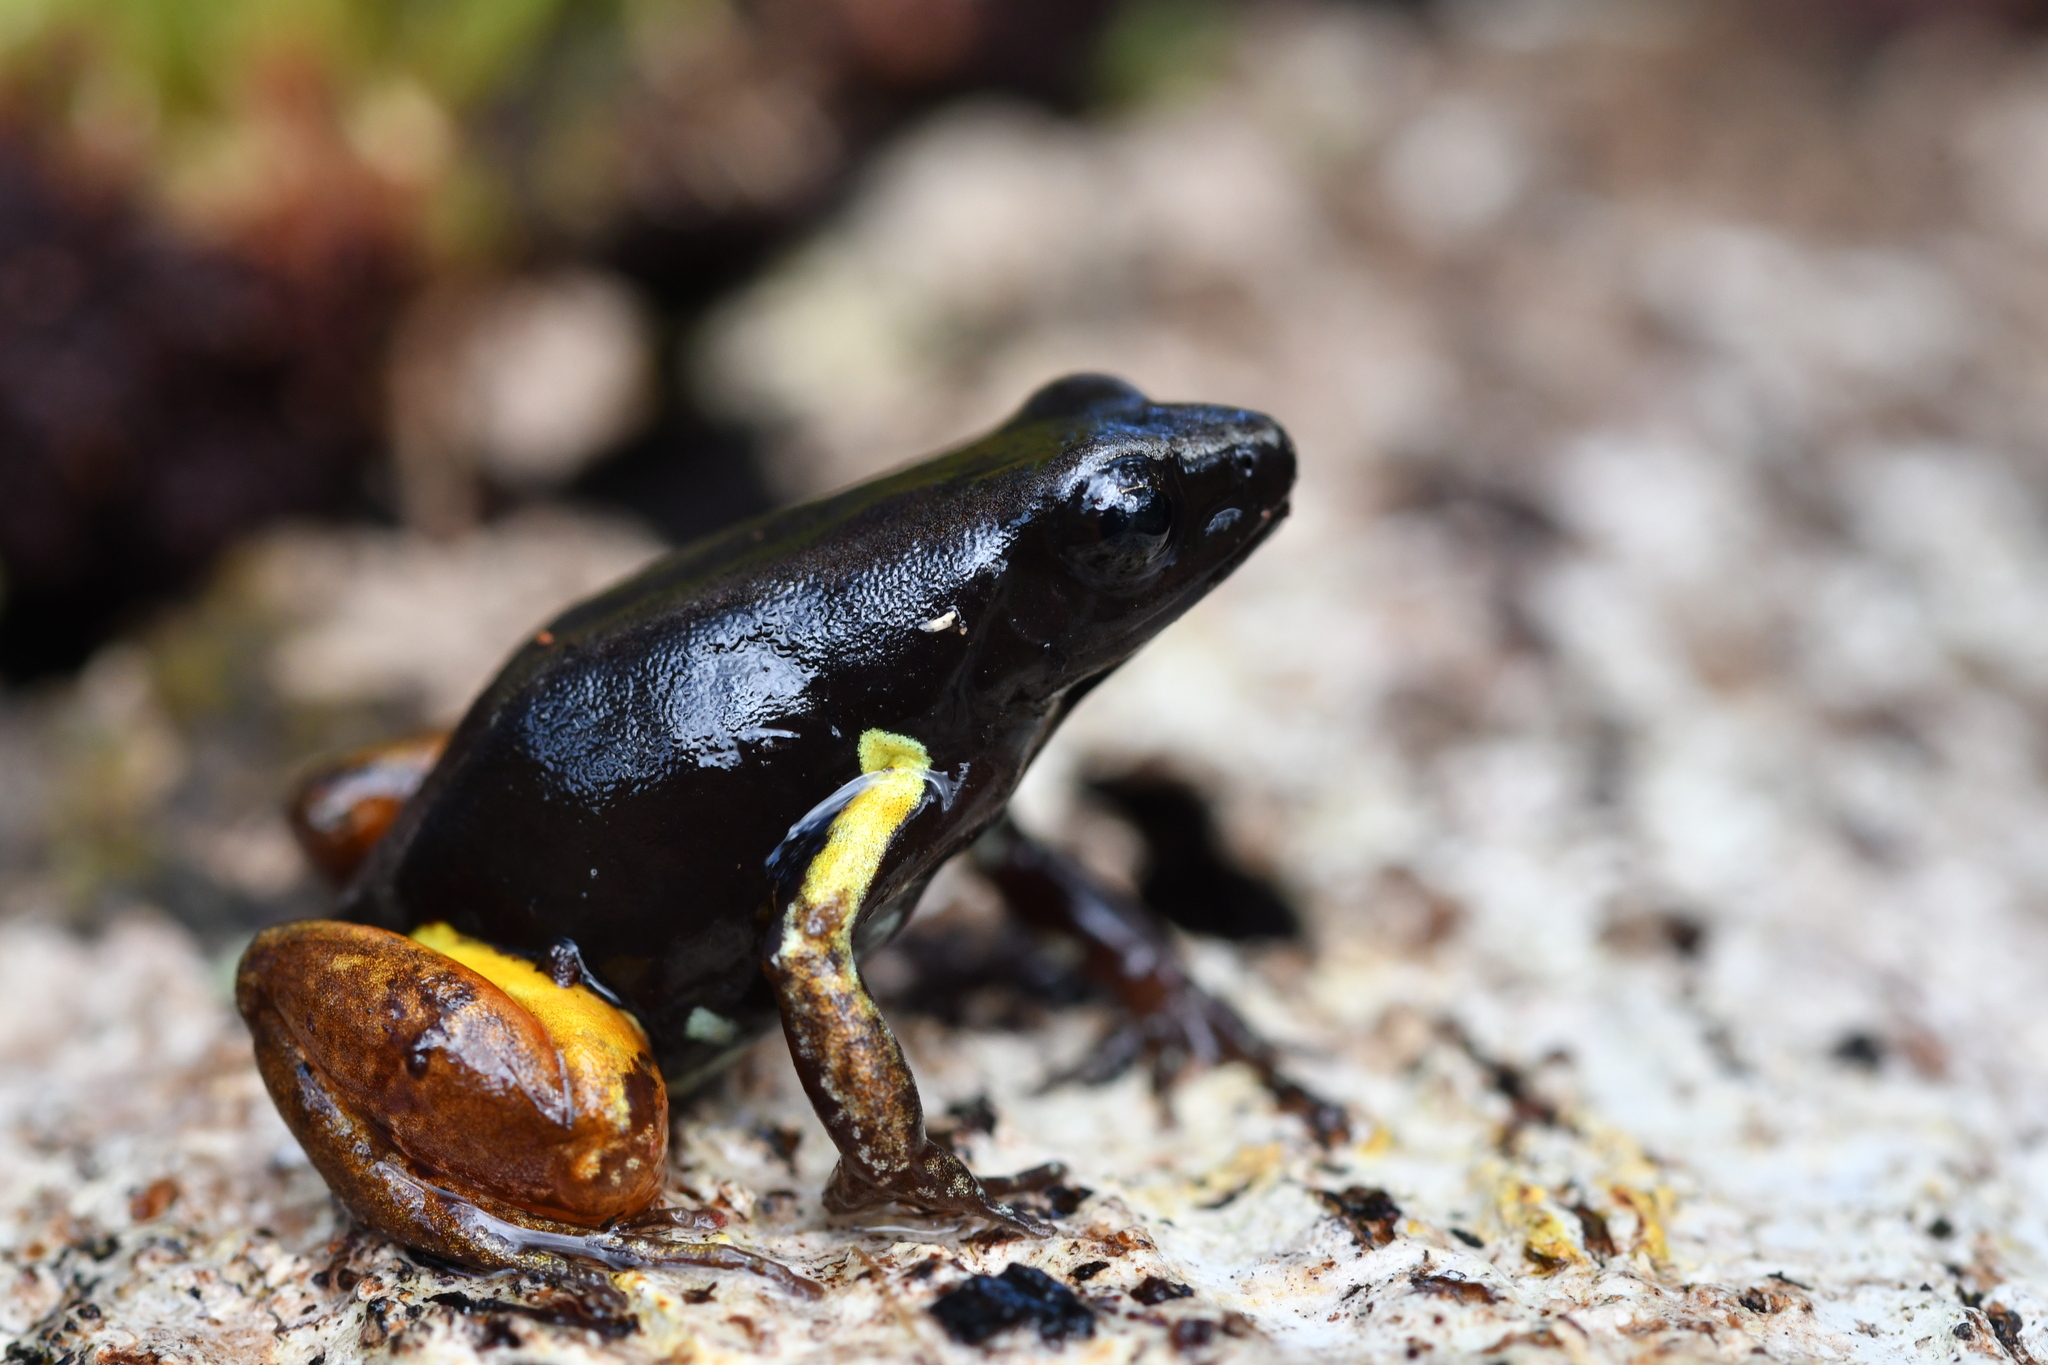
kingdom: Animalia
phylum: Chordata
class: Amphibia
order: Anura
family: Mantellidae
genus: Mantella
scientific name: Mantella bernhardi
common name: Bernhard's mantella
